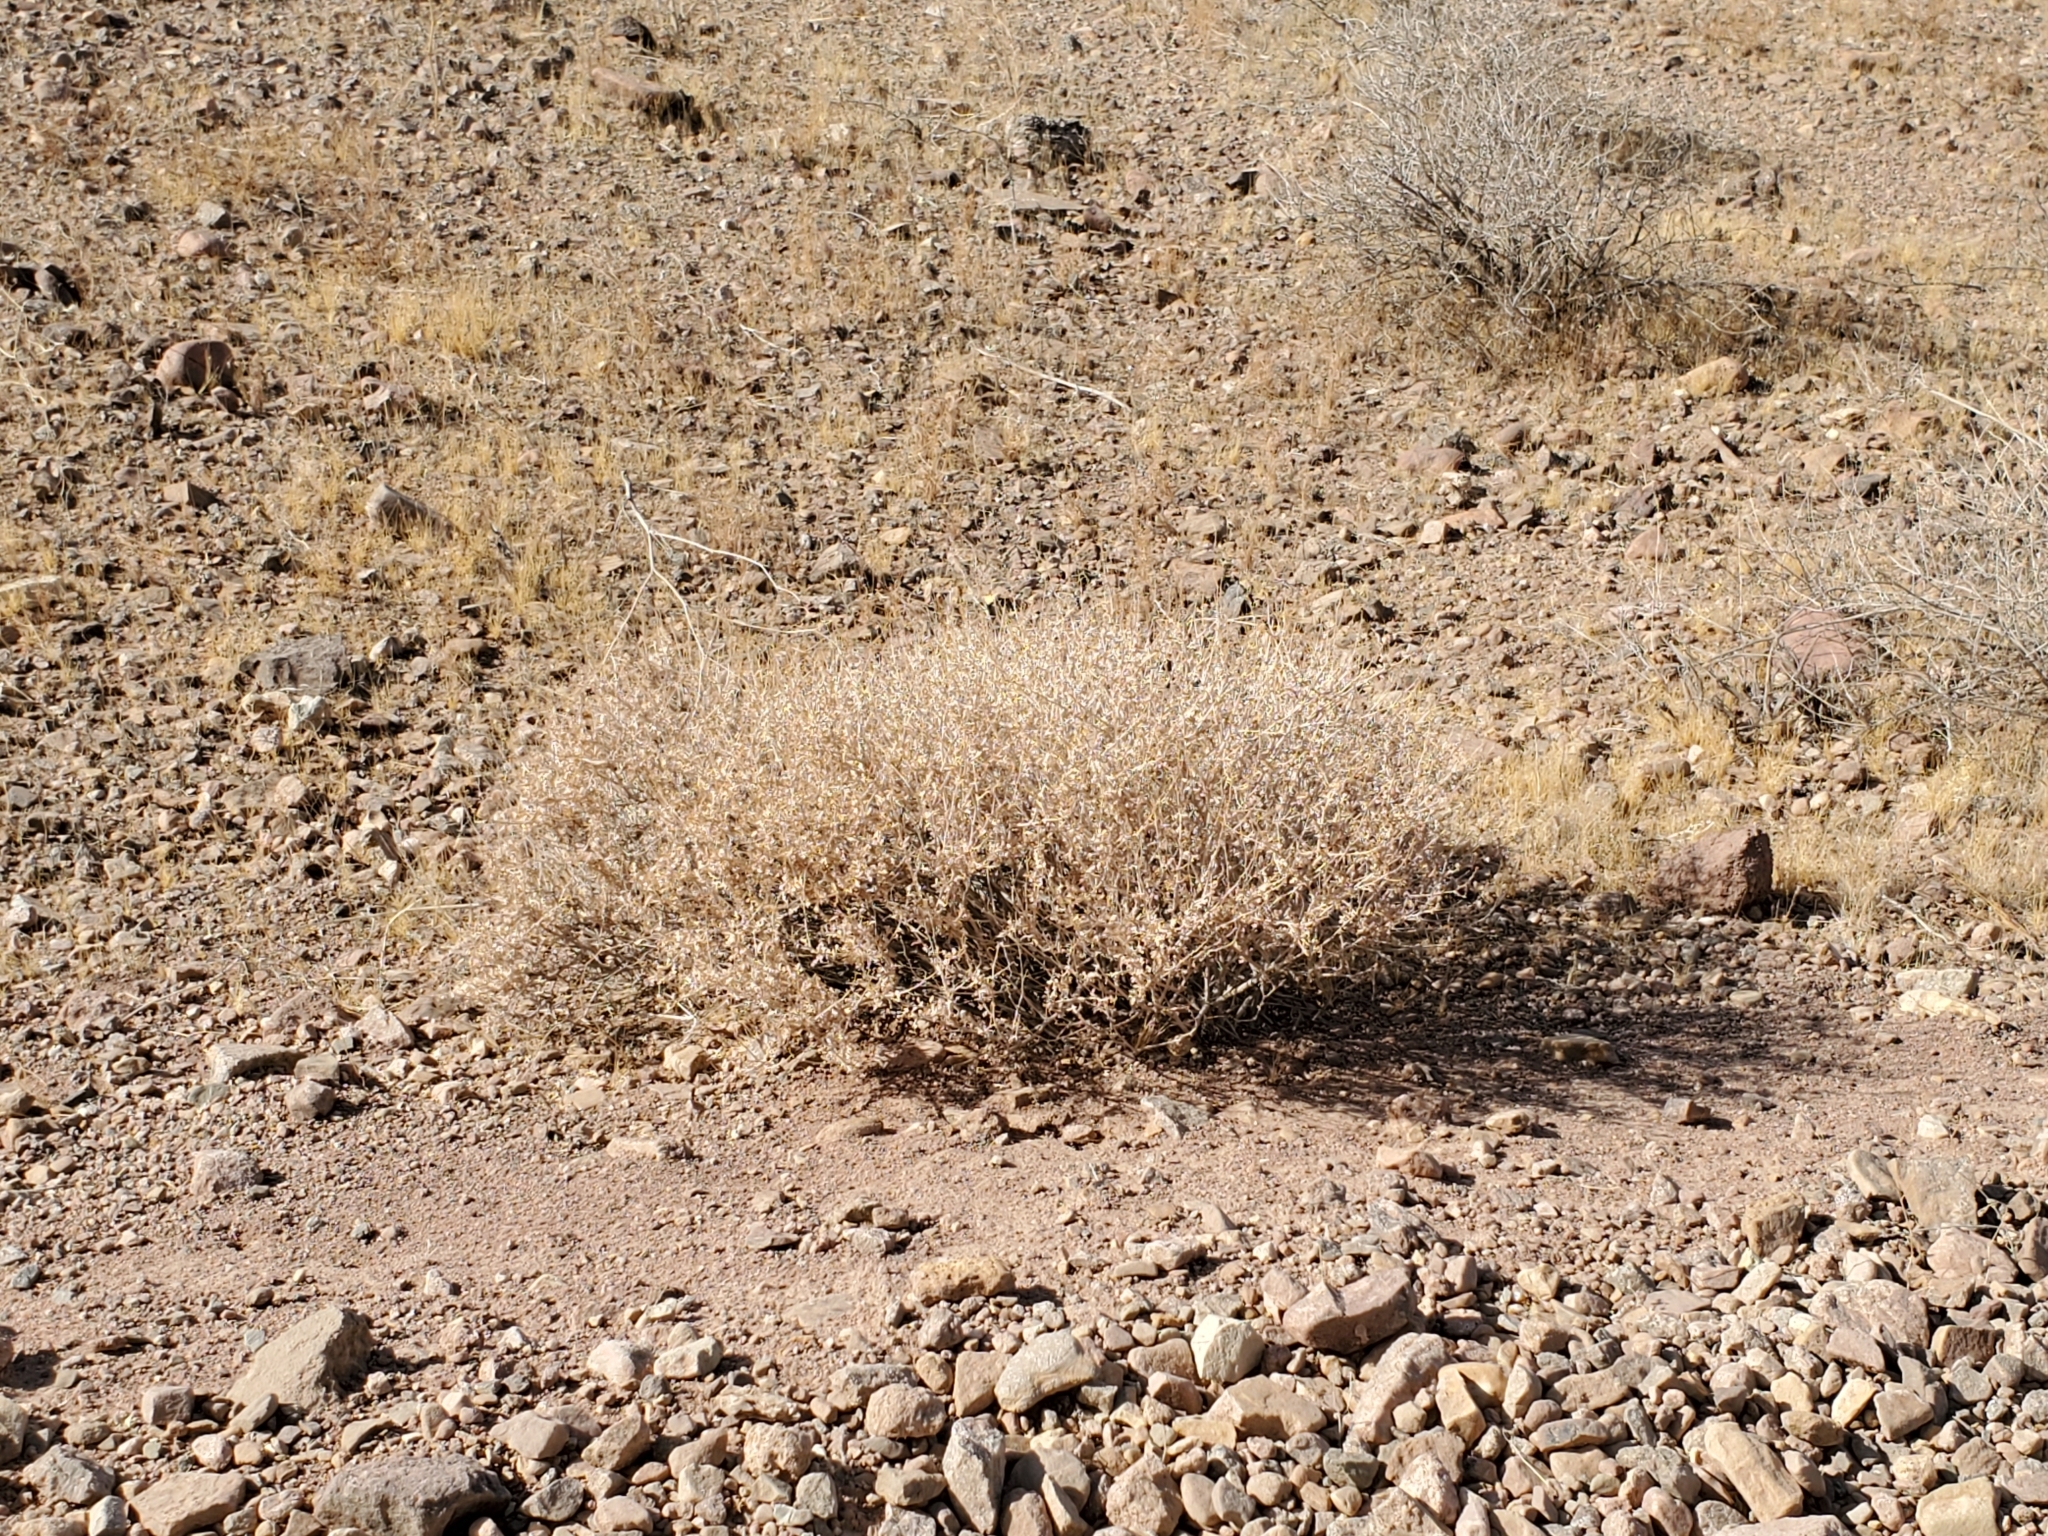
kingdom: Plantae
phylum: Tracheophyta
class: Magnoliopsida
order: Asterales
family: Asteraceae
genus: Ambrosia
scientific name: Ambrosia dumosa
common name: Bur-sage
